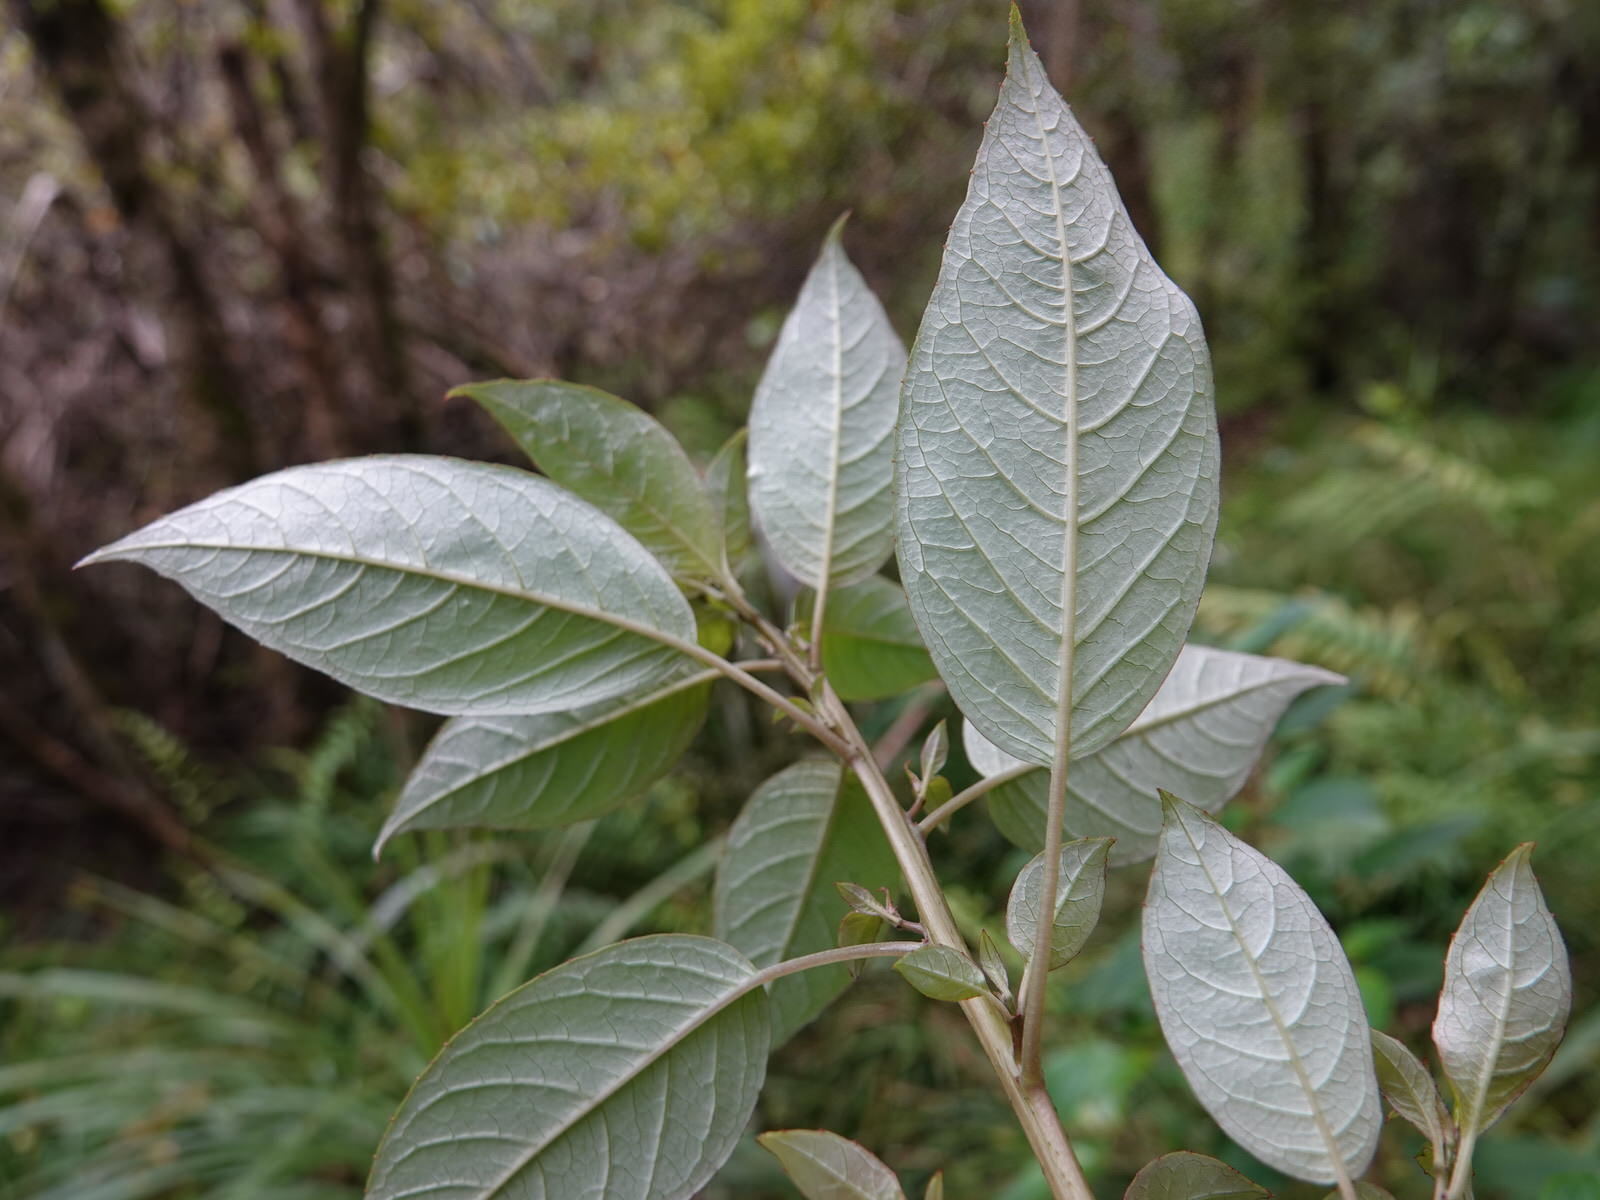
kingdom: Plantae
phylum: Tracheophyta
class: Magnoliopsida
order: Myrtales
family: Onagraceae
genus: Fuchsia
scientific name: Fuchsia excorticata
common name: Tree fuchsia
